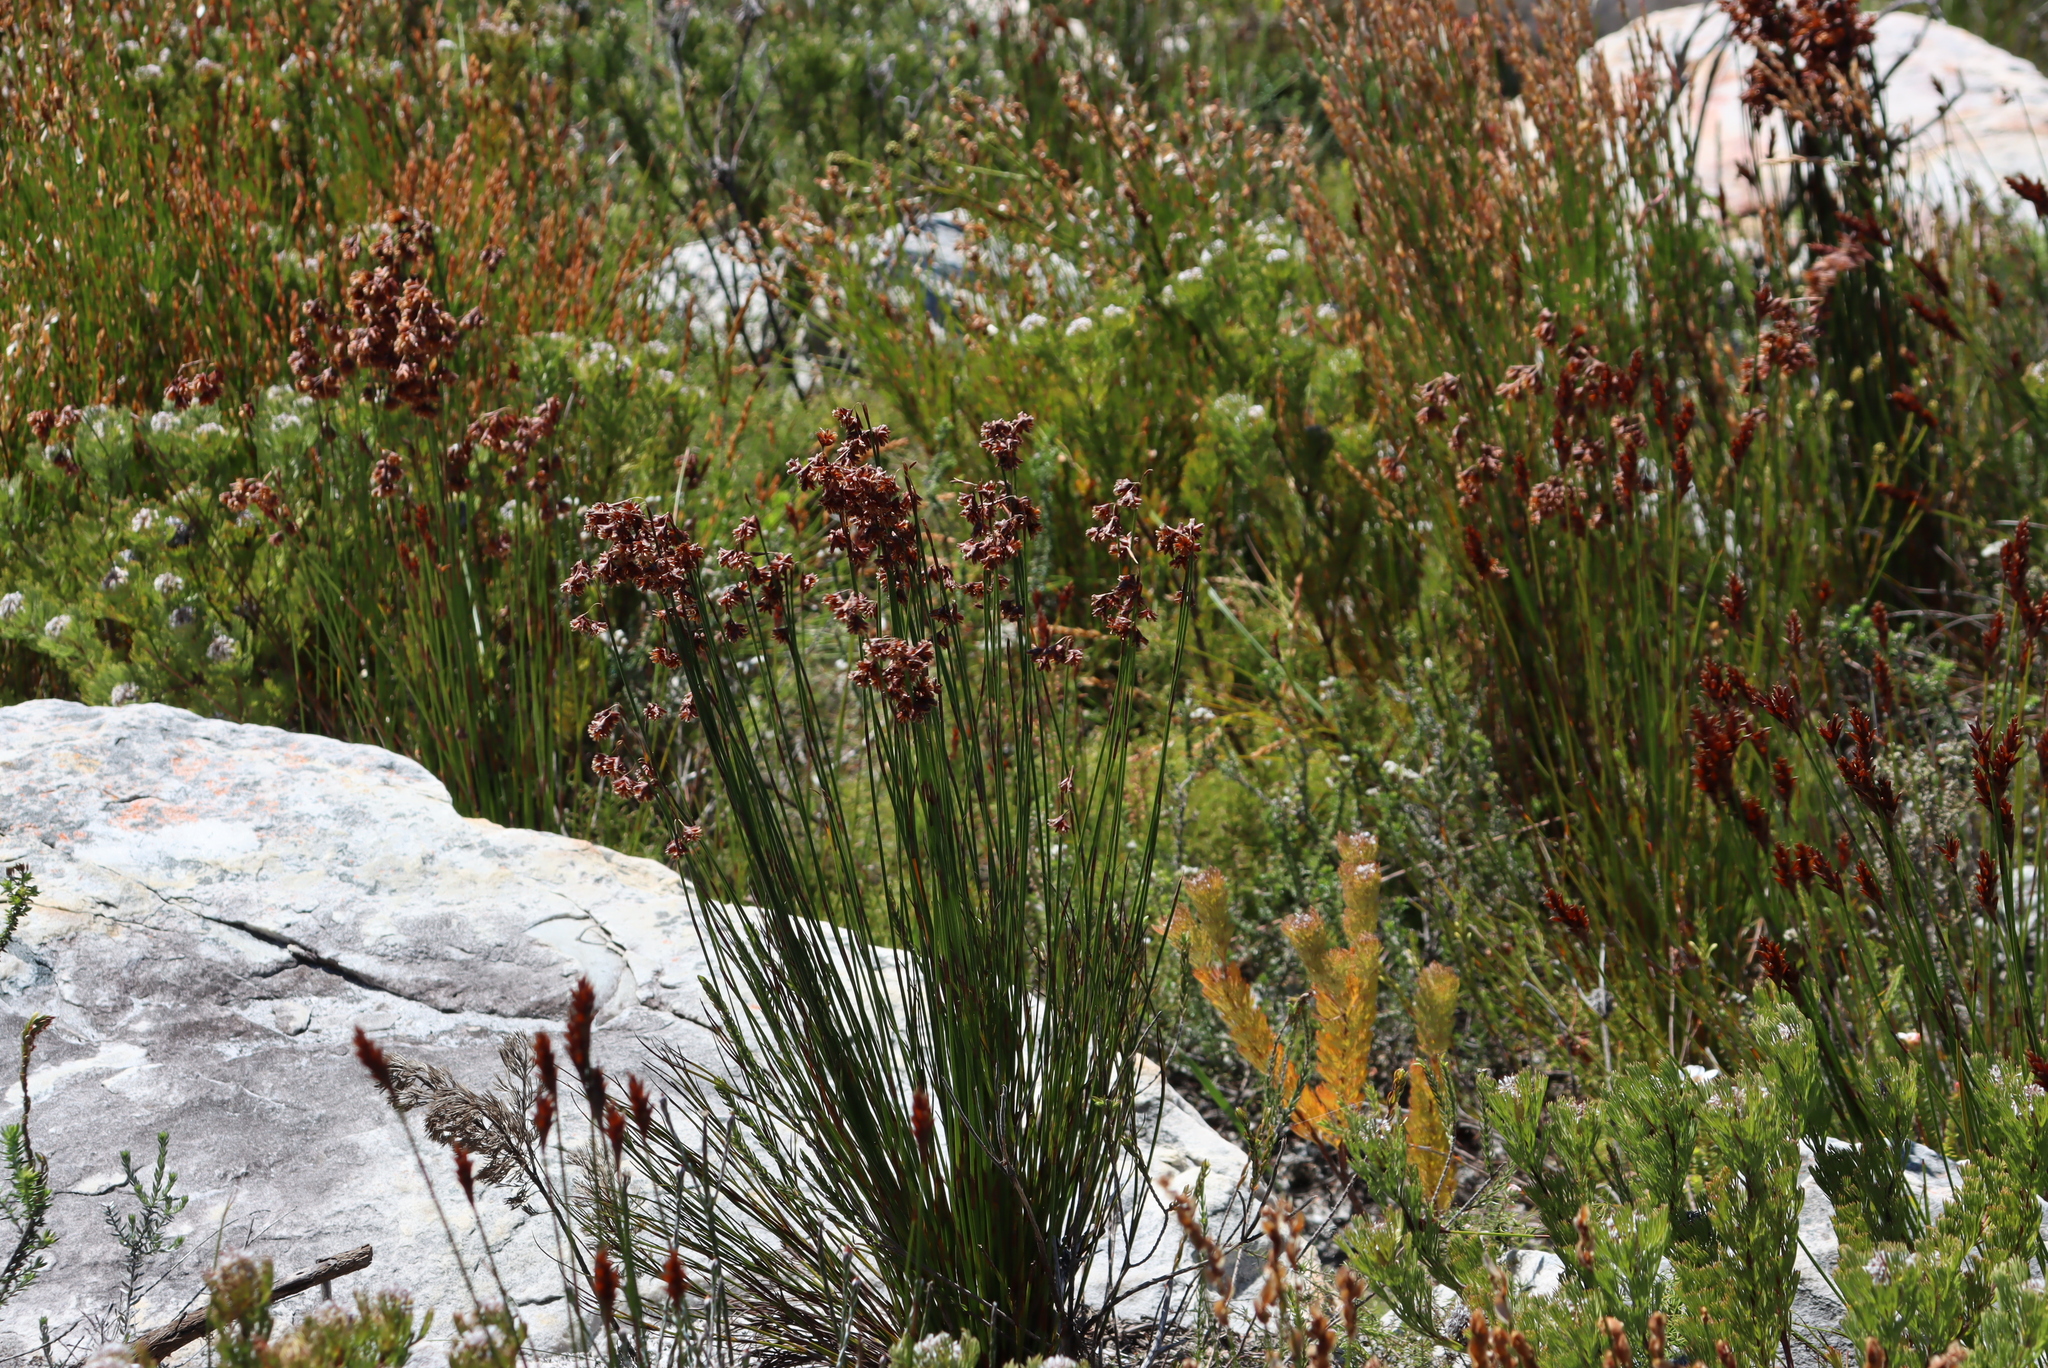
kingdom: Plantae
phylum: Tracheophyta
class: Liliopsida
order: Poales
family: Restionaceae
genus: Staberoha
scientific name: Staberoha banksii
